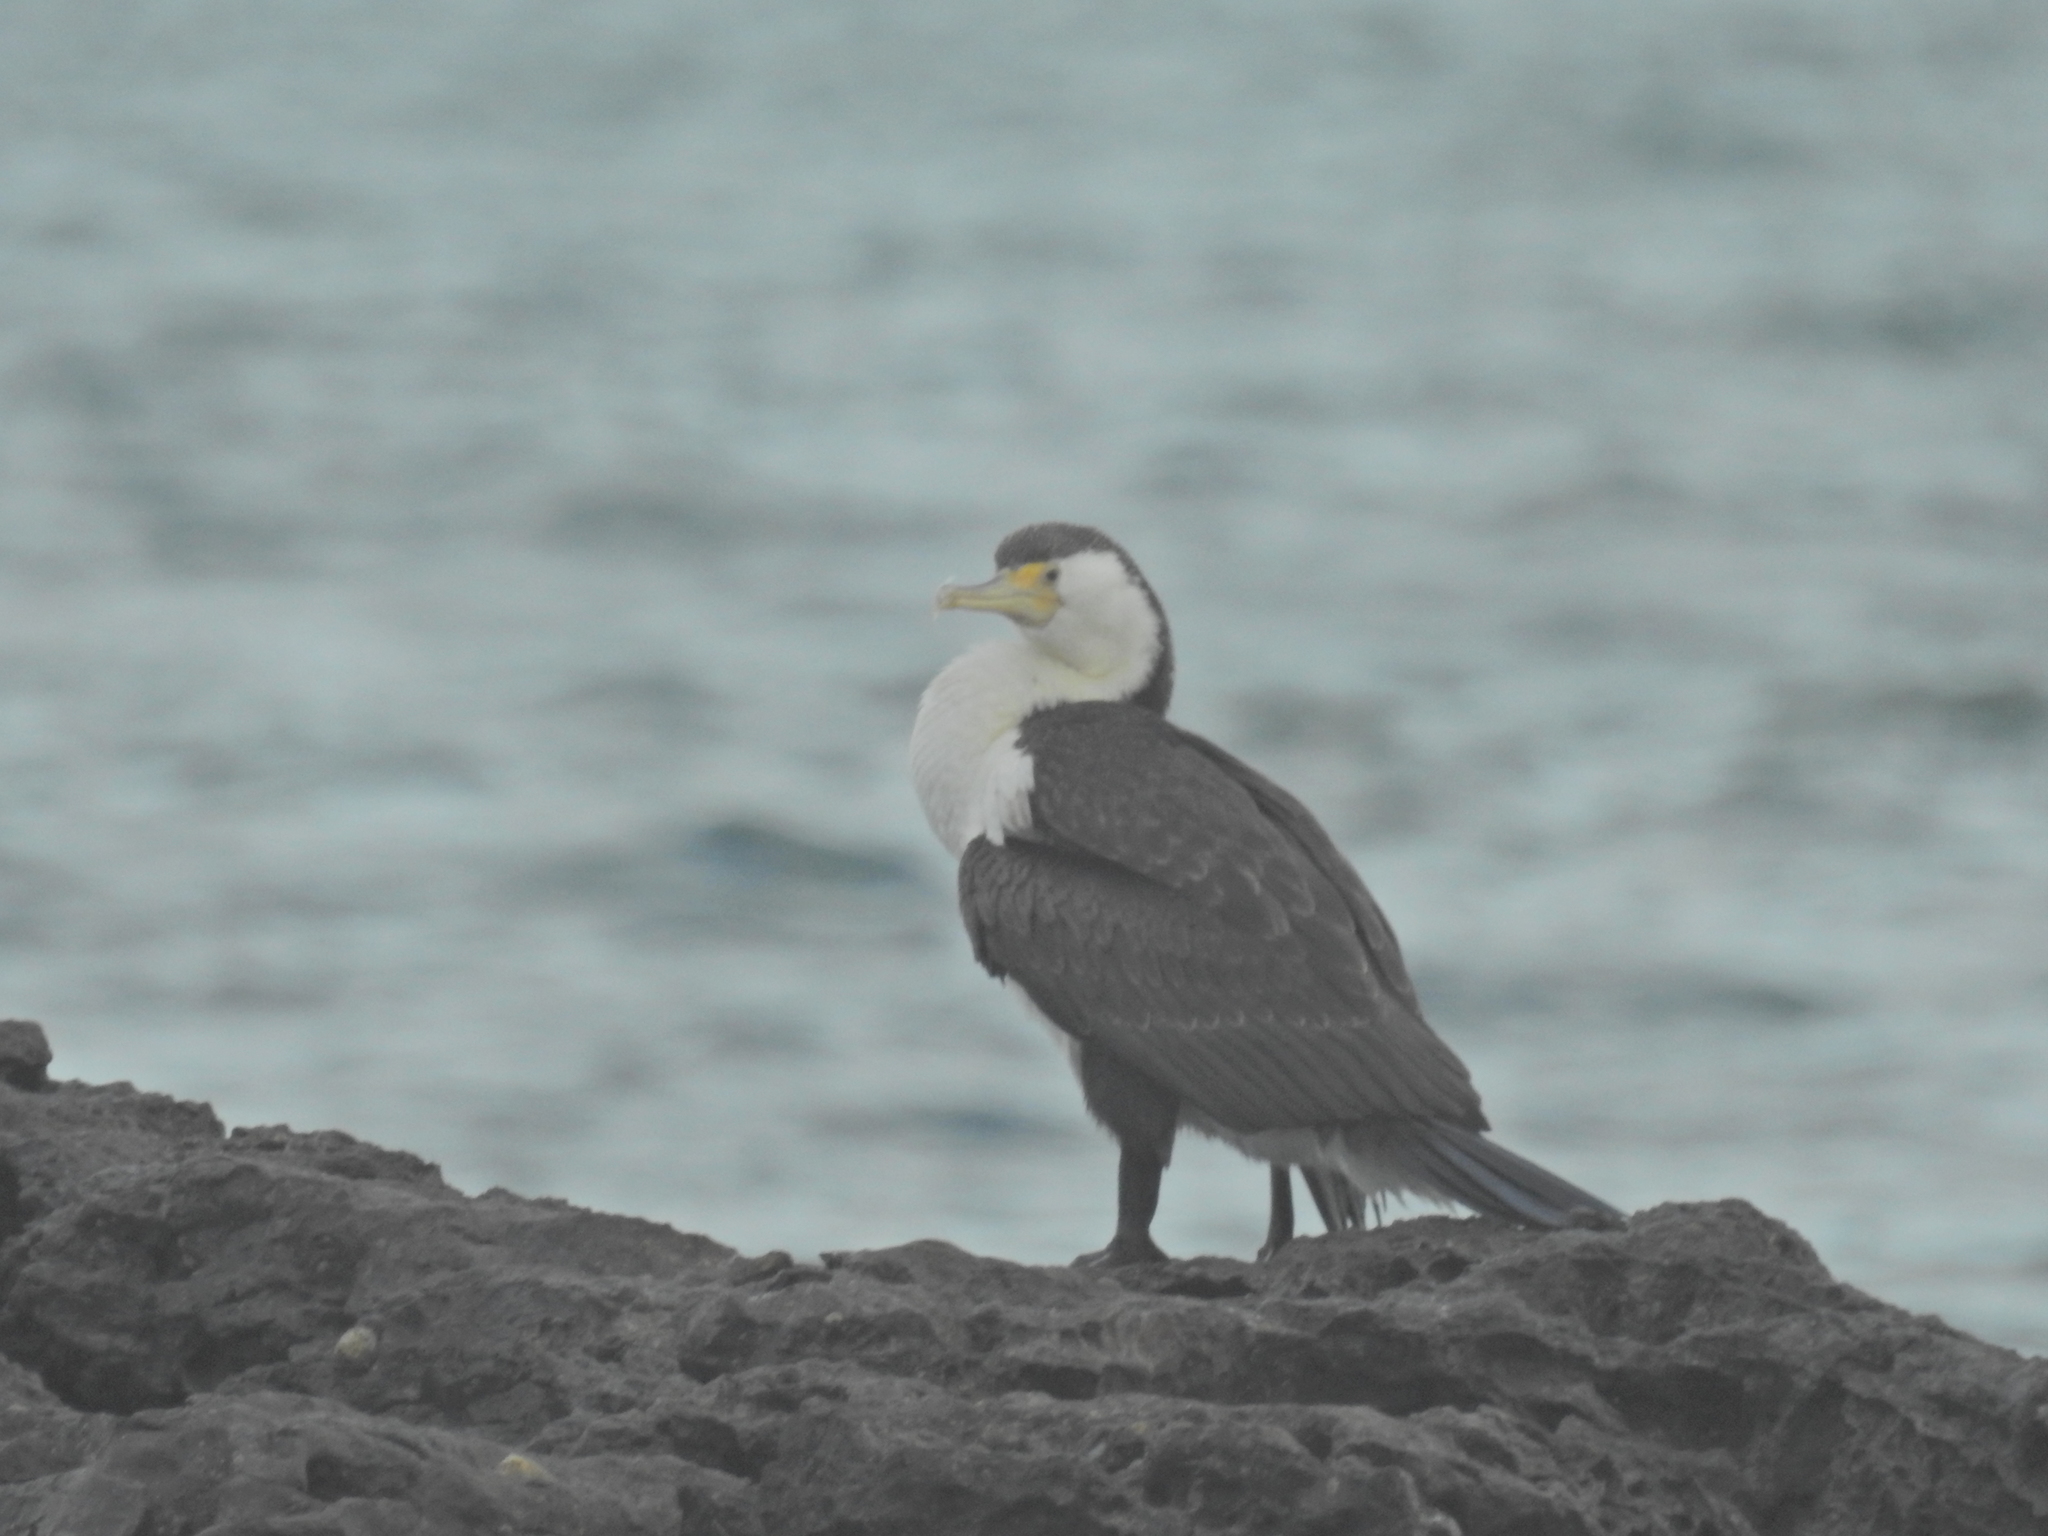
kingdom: Animalia
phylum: Chordata
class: Aves
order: Suliformes
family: Phalacrocoracidae
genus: Phalacrocorax
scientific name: Phalacrocorax varius
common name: Pied cormorant
